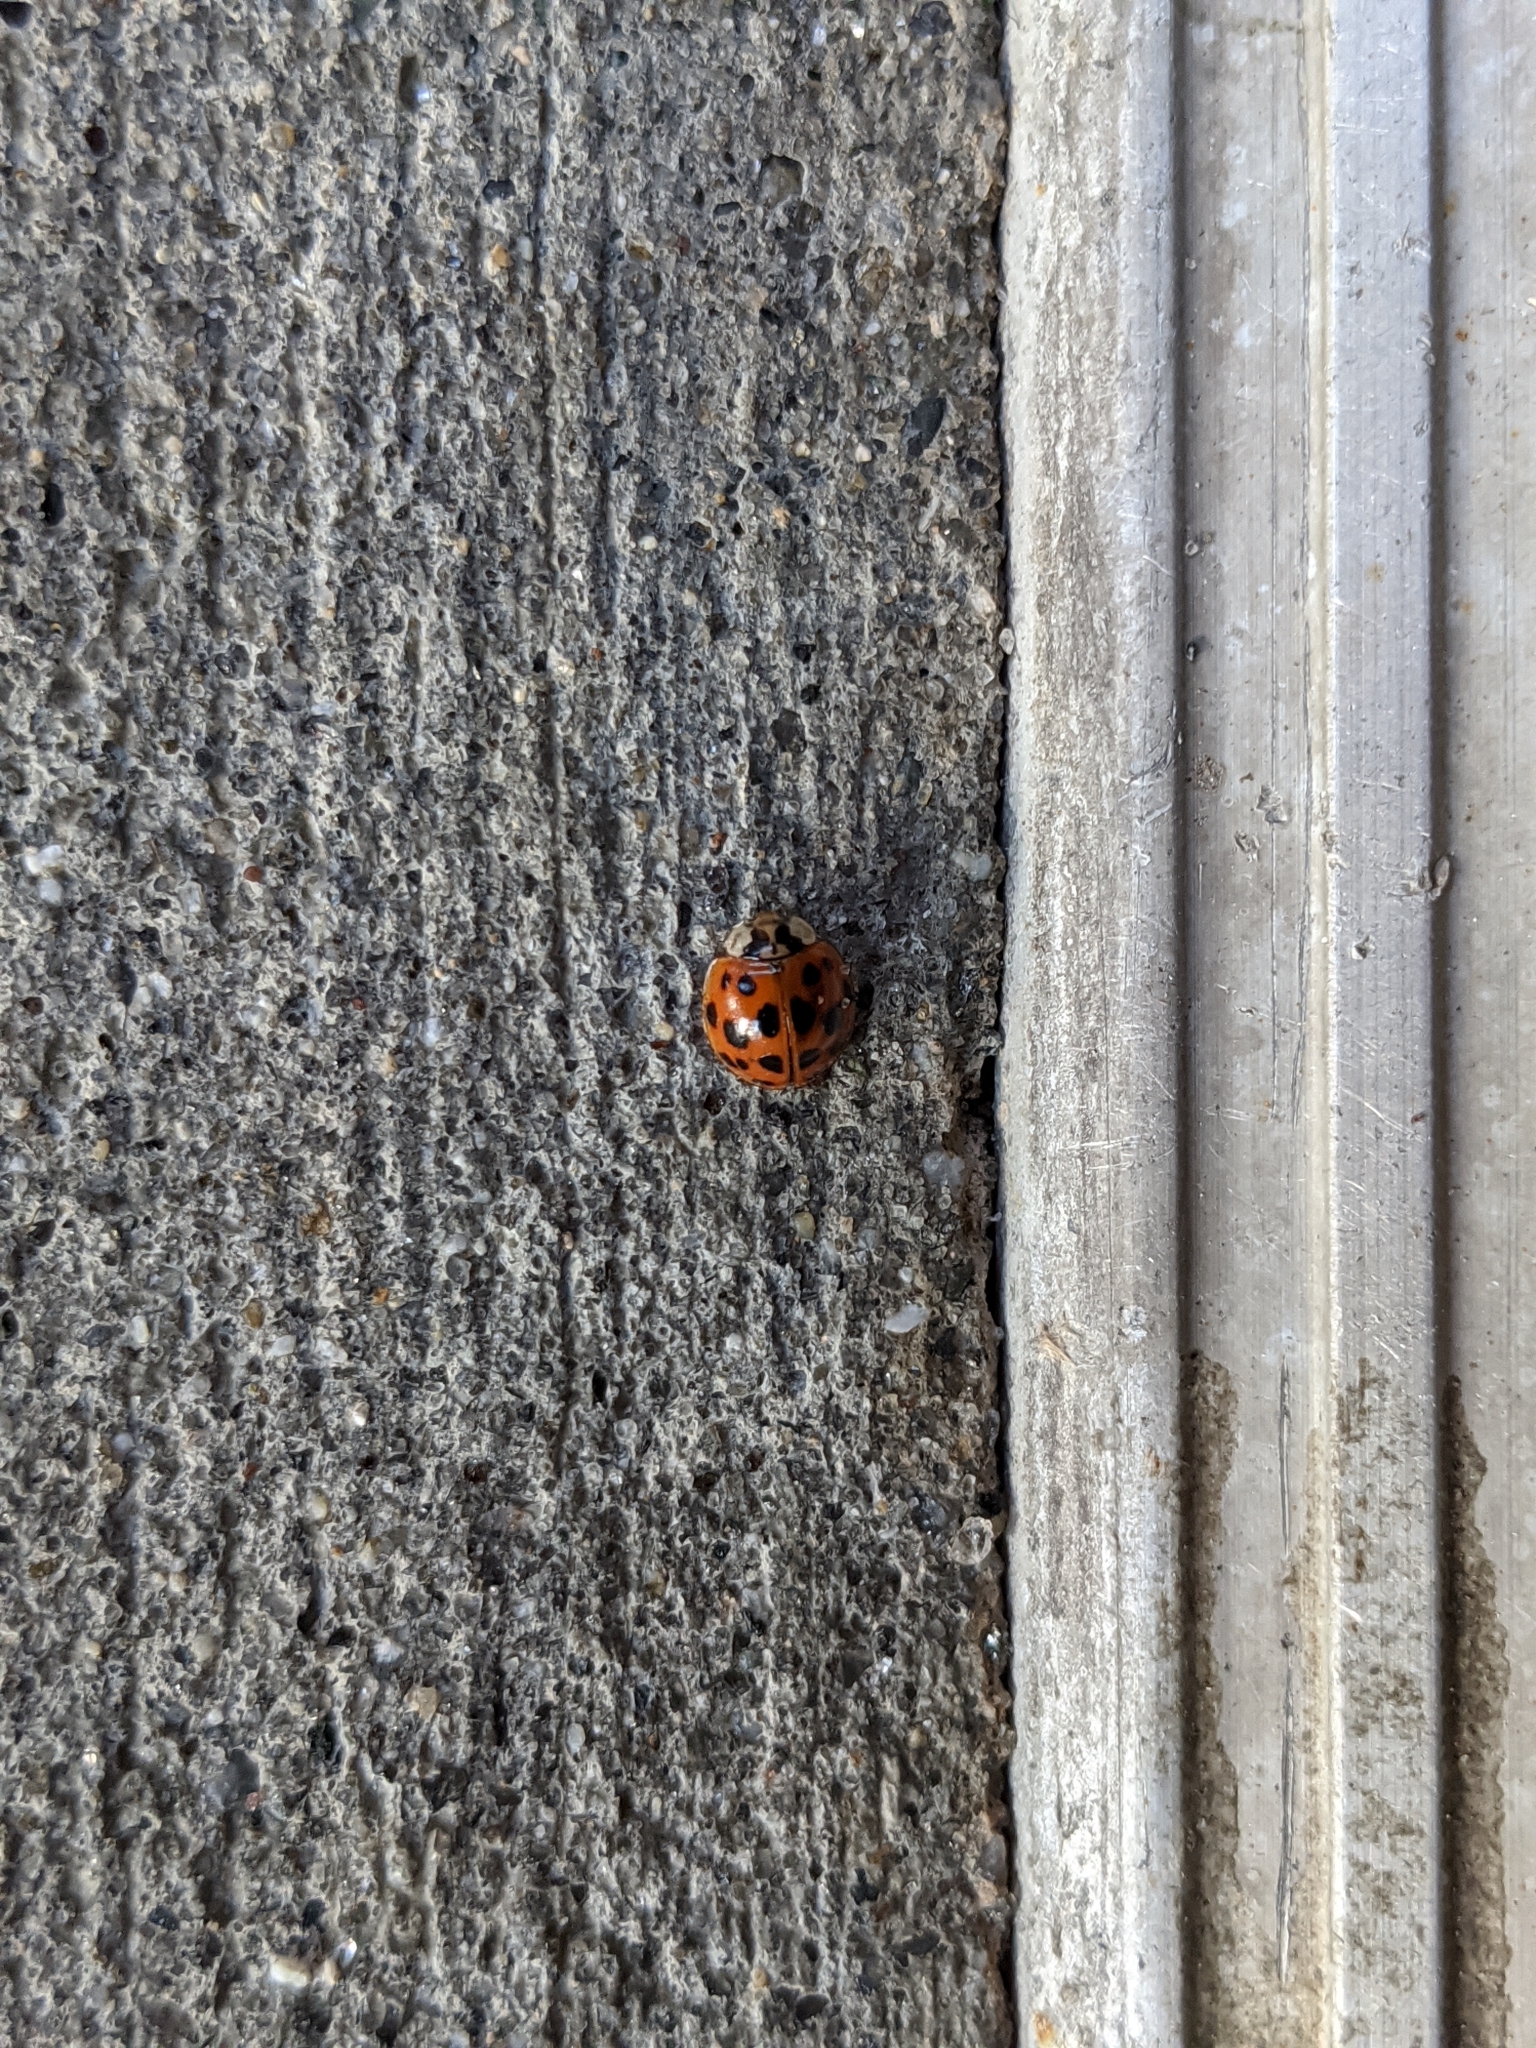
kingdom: Animalia
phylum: Arthropoda
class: Insecta
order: Coleoptera
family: Coccinellidae
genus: Harmonia
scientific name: Harmonia axyridis
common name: Harlequin ladybird
